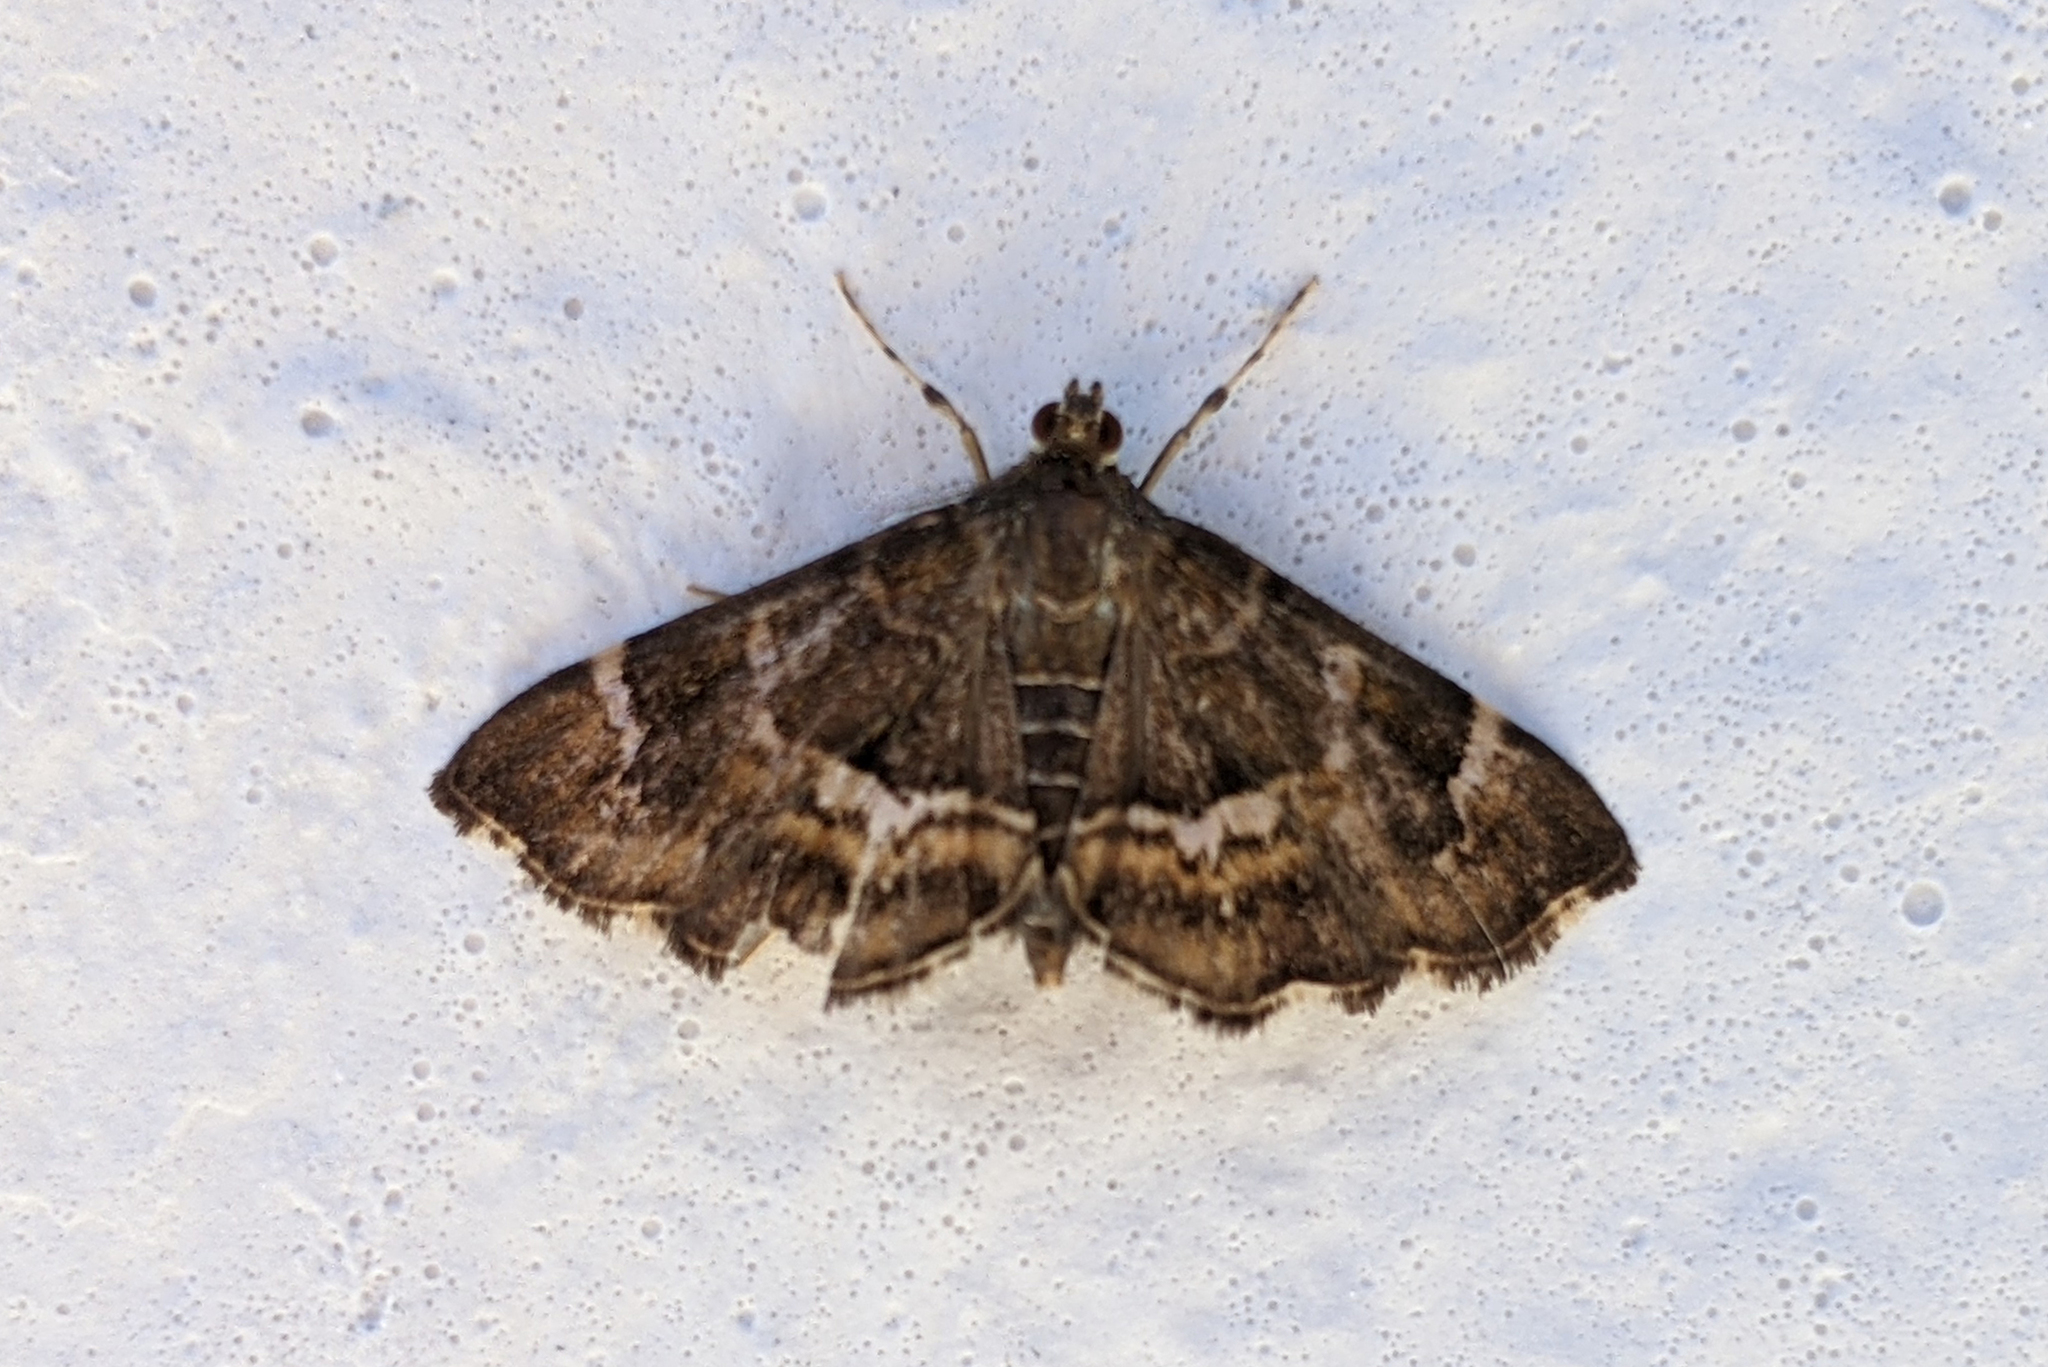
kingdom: Animalia
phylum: Arthropoda
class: Insecta
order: Lepidoptera
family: Crambidae
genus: Hymenia
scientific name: Hymenia perspectalis
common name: Spotted beet webworm
